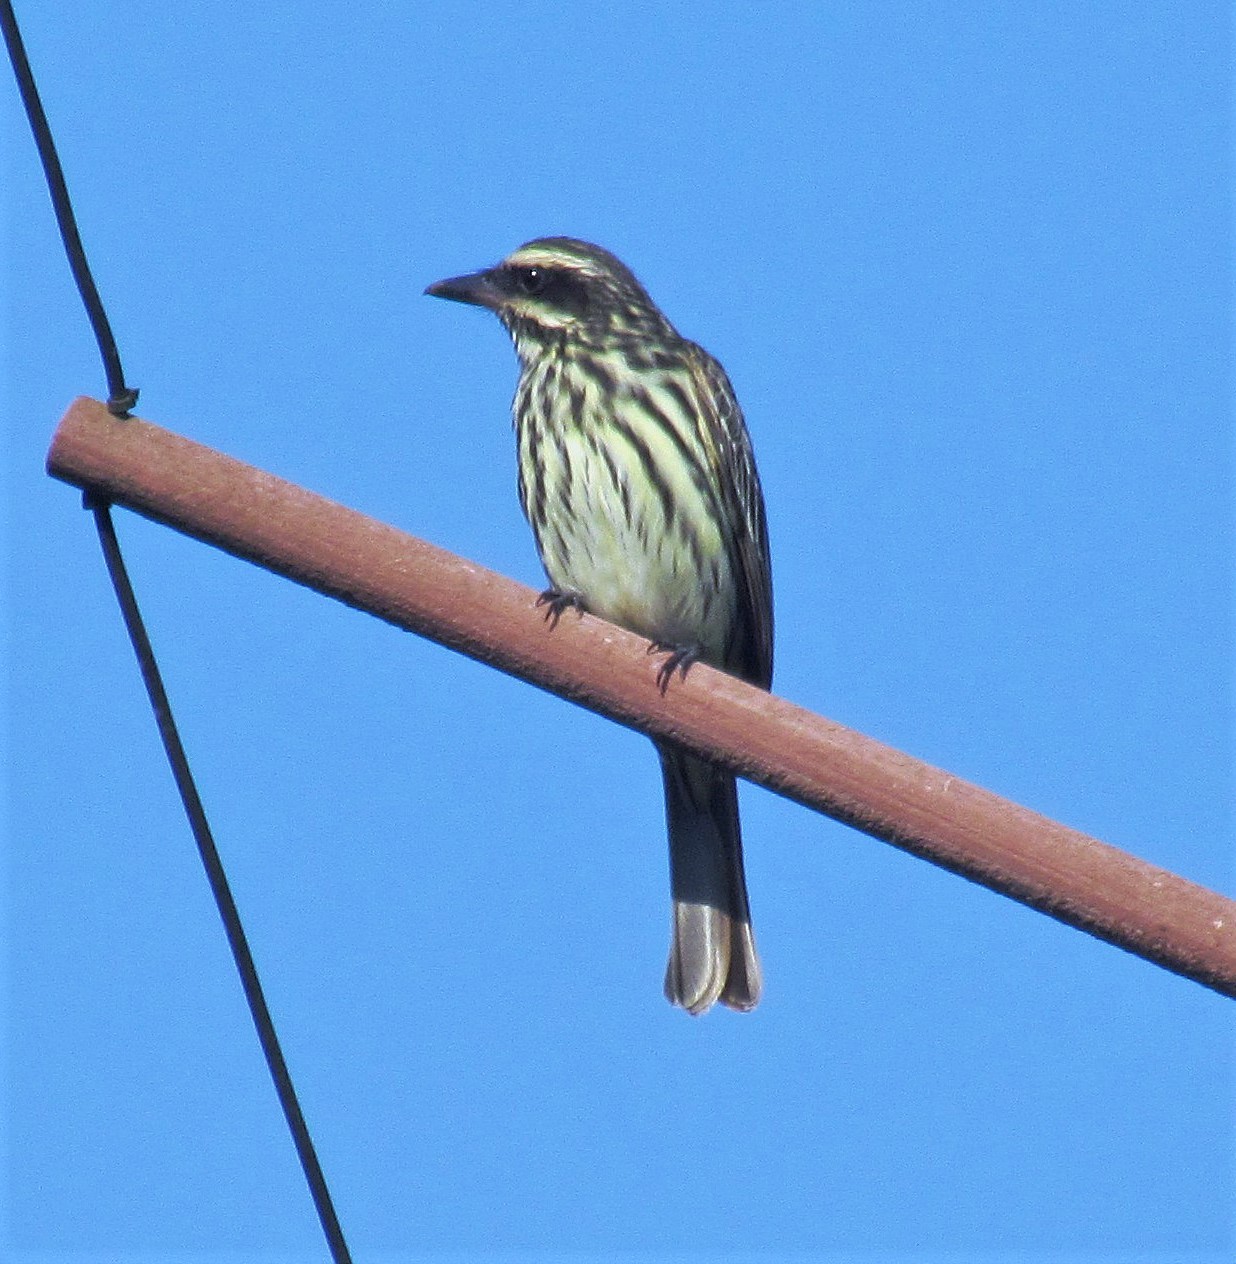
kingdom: Animalia
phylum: Chordata
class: Aves
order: Passeriformes
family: Tyrannidae
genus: Myiodynastes
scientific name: Myiodynastes maculatus
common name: Streaked flycatcher
